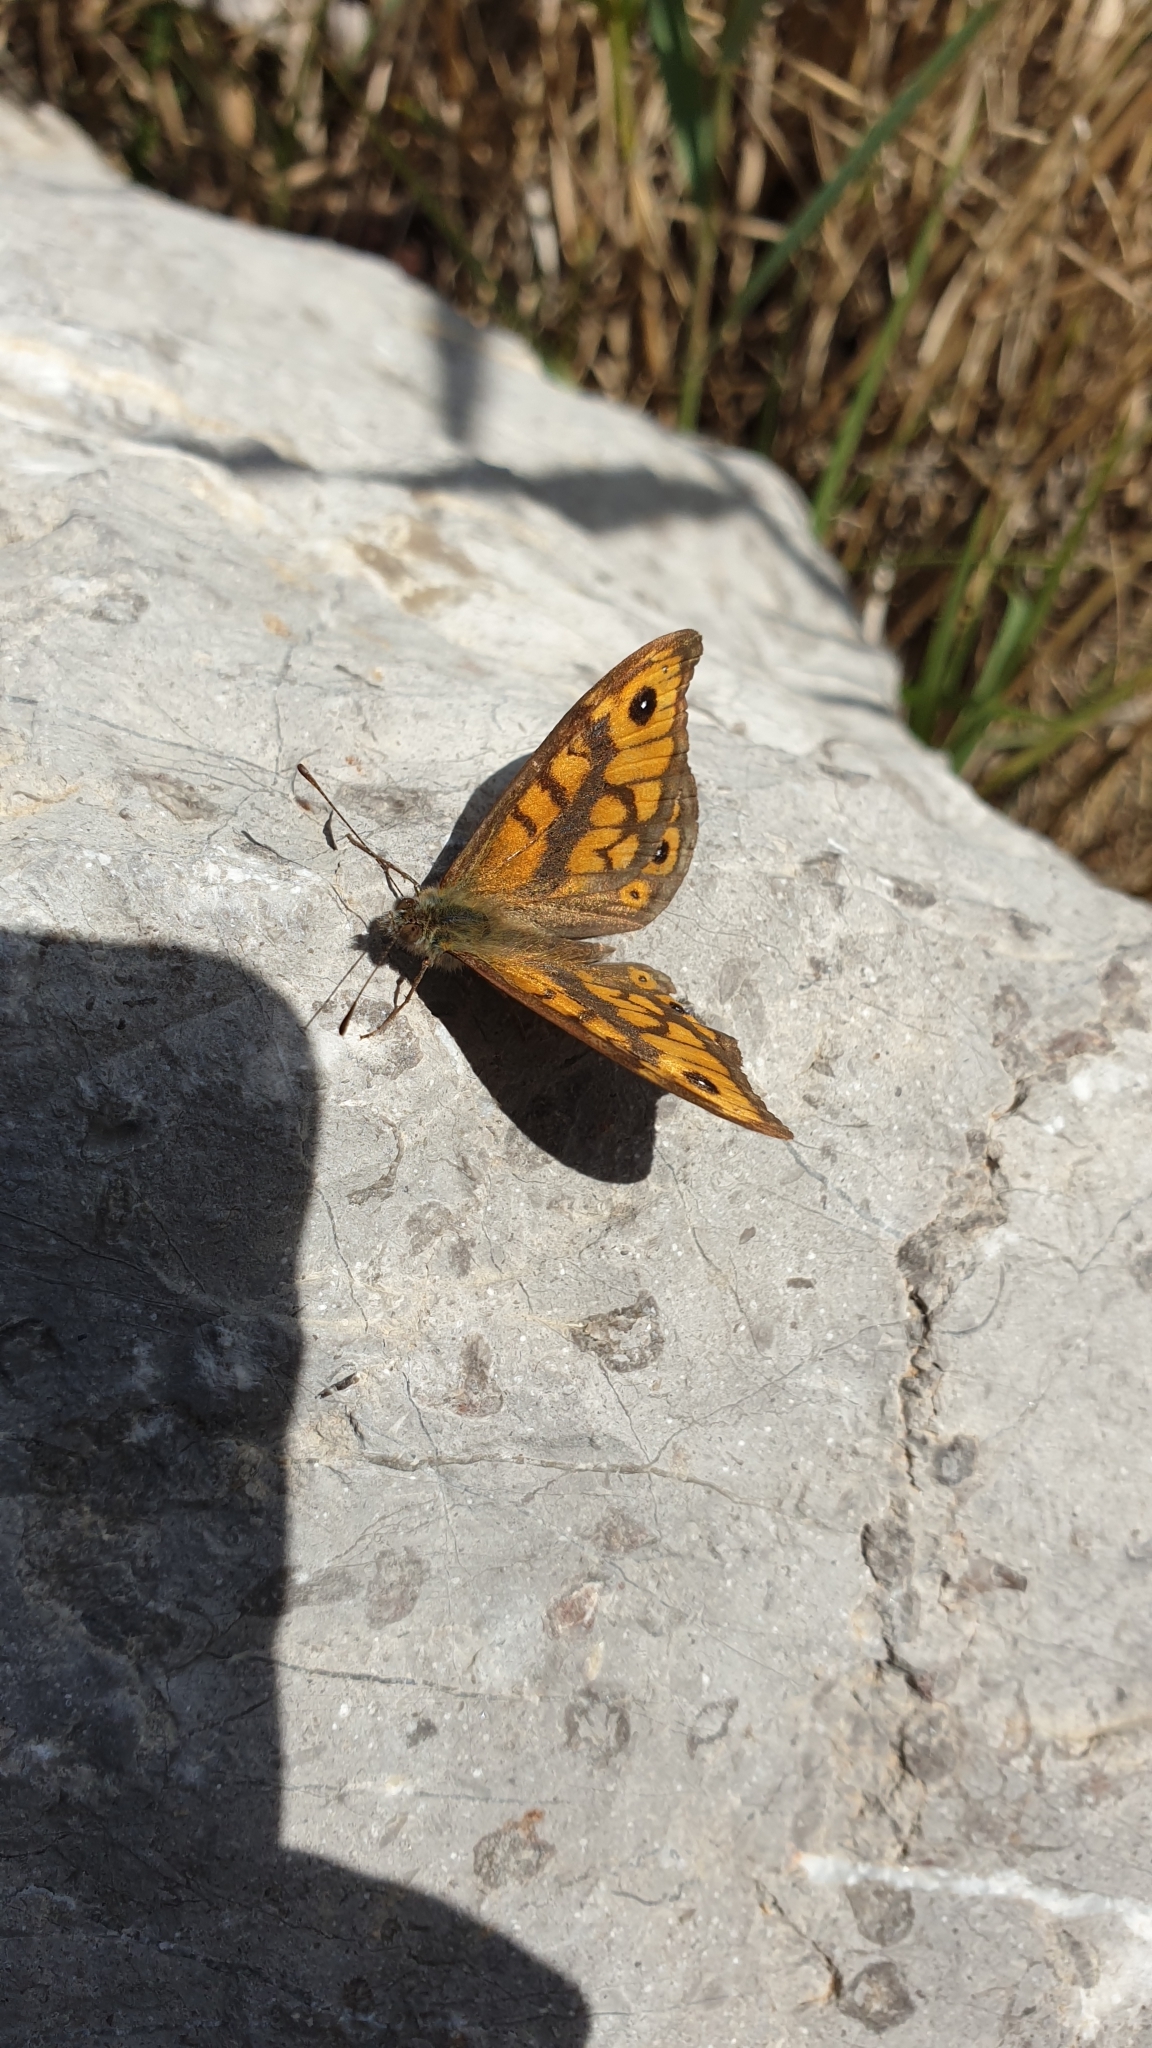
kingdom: Animalia
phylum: Arthropoda
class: Insecta
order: Lepidoptera
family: Nymphalidae
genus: Pararge
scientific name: Pararge Lasiommata megera
